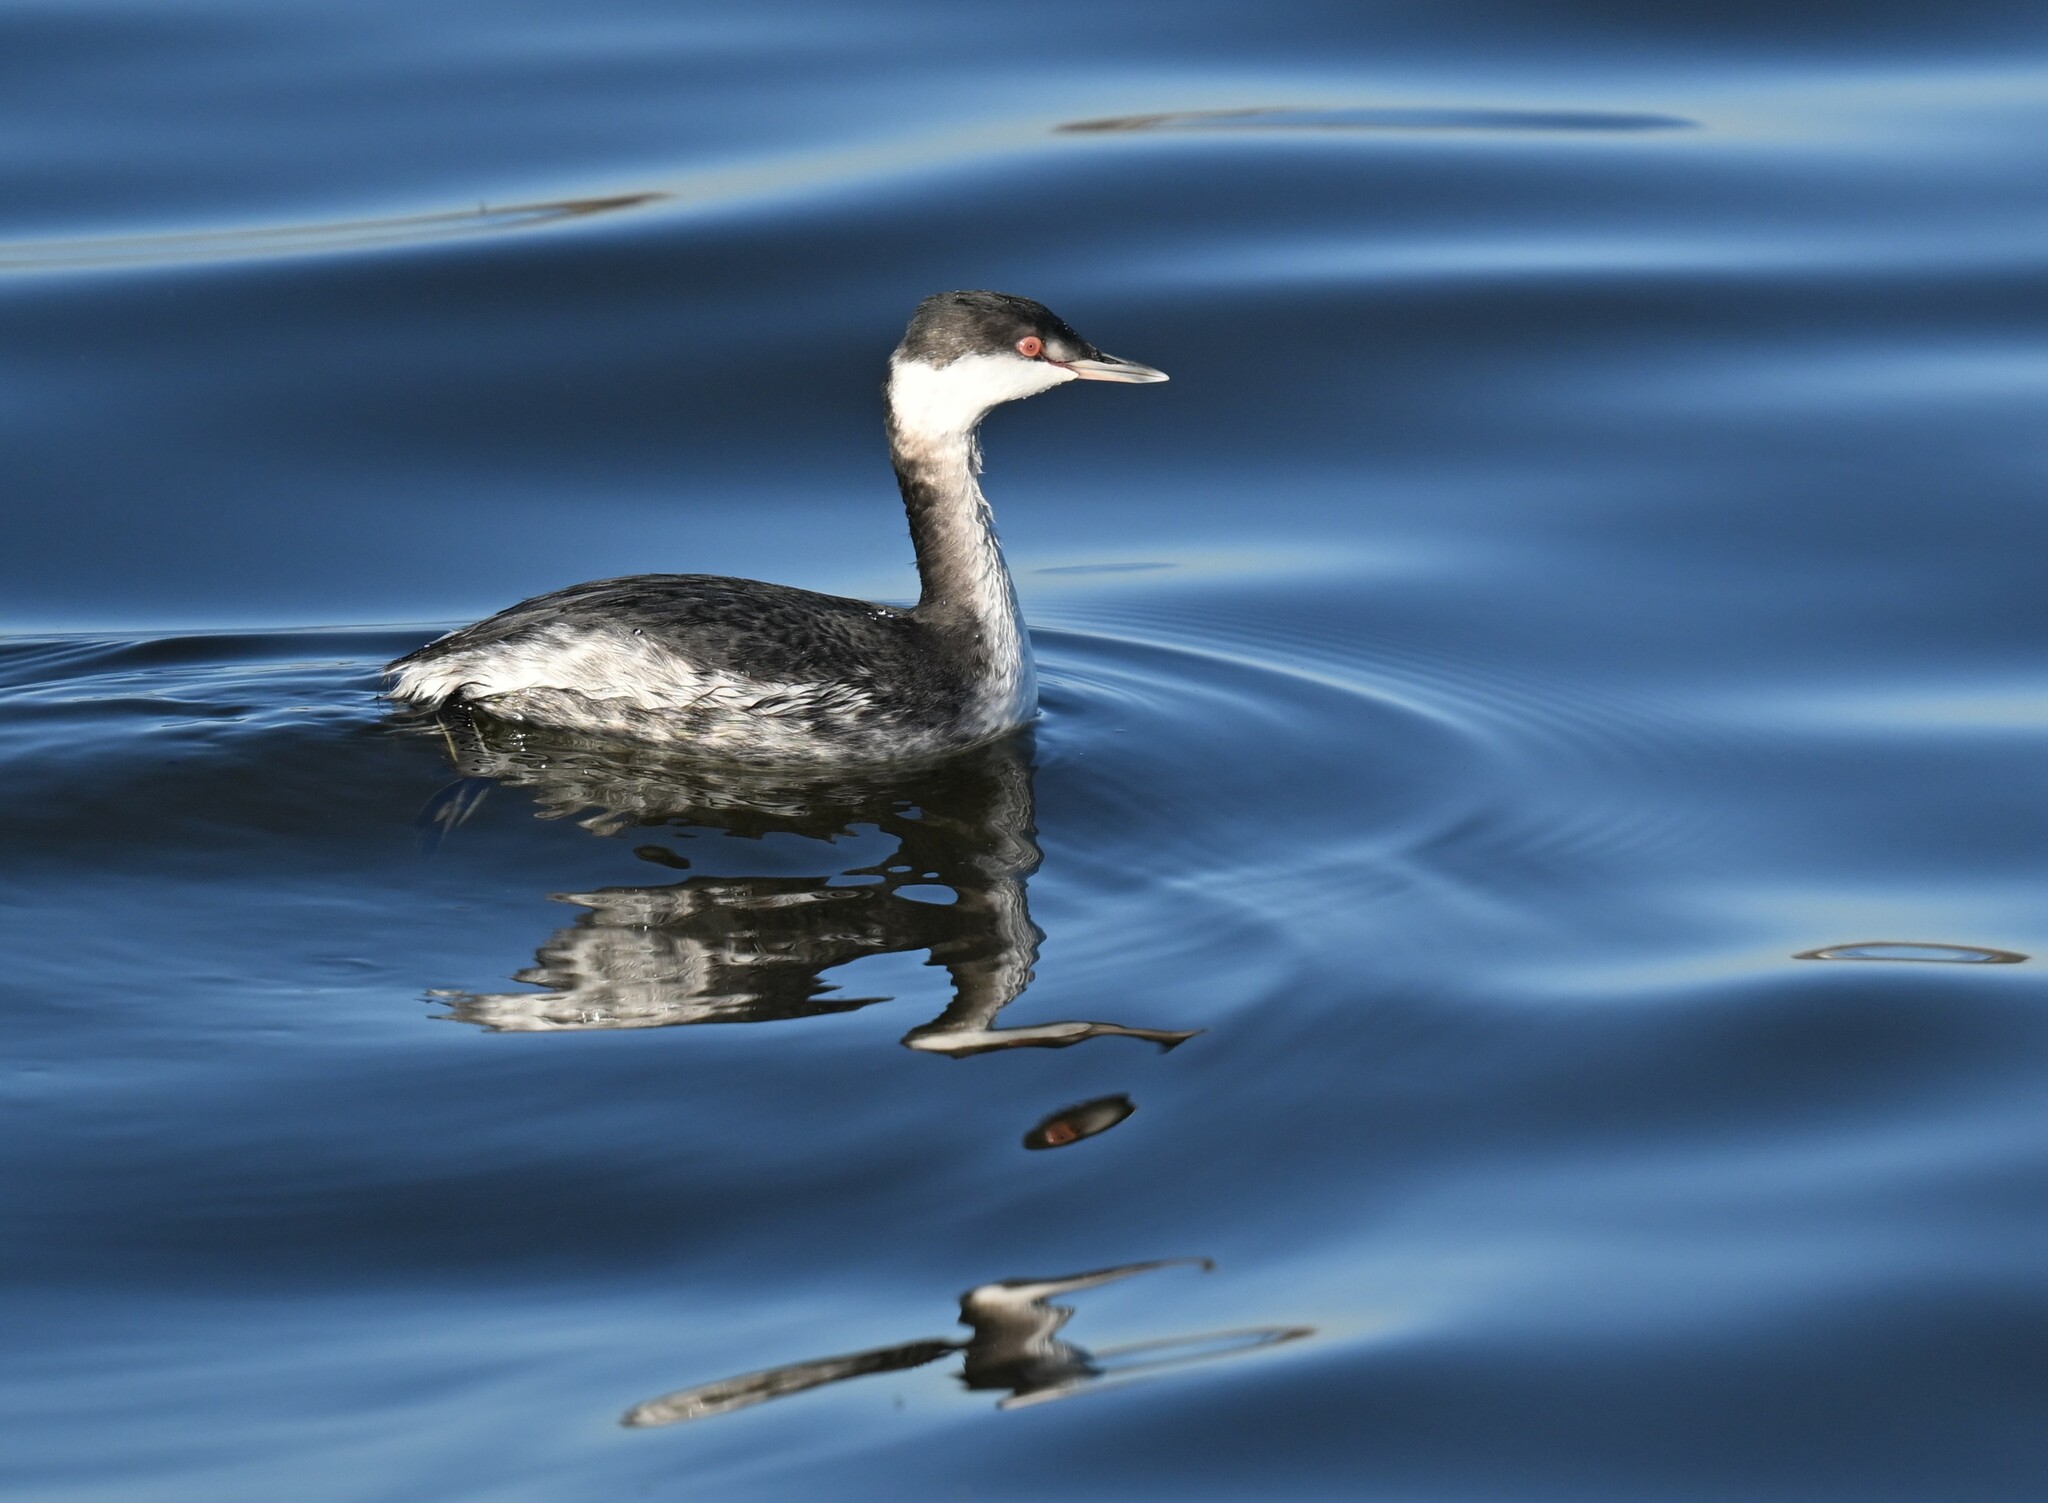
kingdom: Animalia
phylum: Chordata
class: Aves
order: Podicipediformes
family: Podicipedidae
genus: Podiceps
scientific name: Podiceps auritus
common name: Horned grebe
